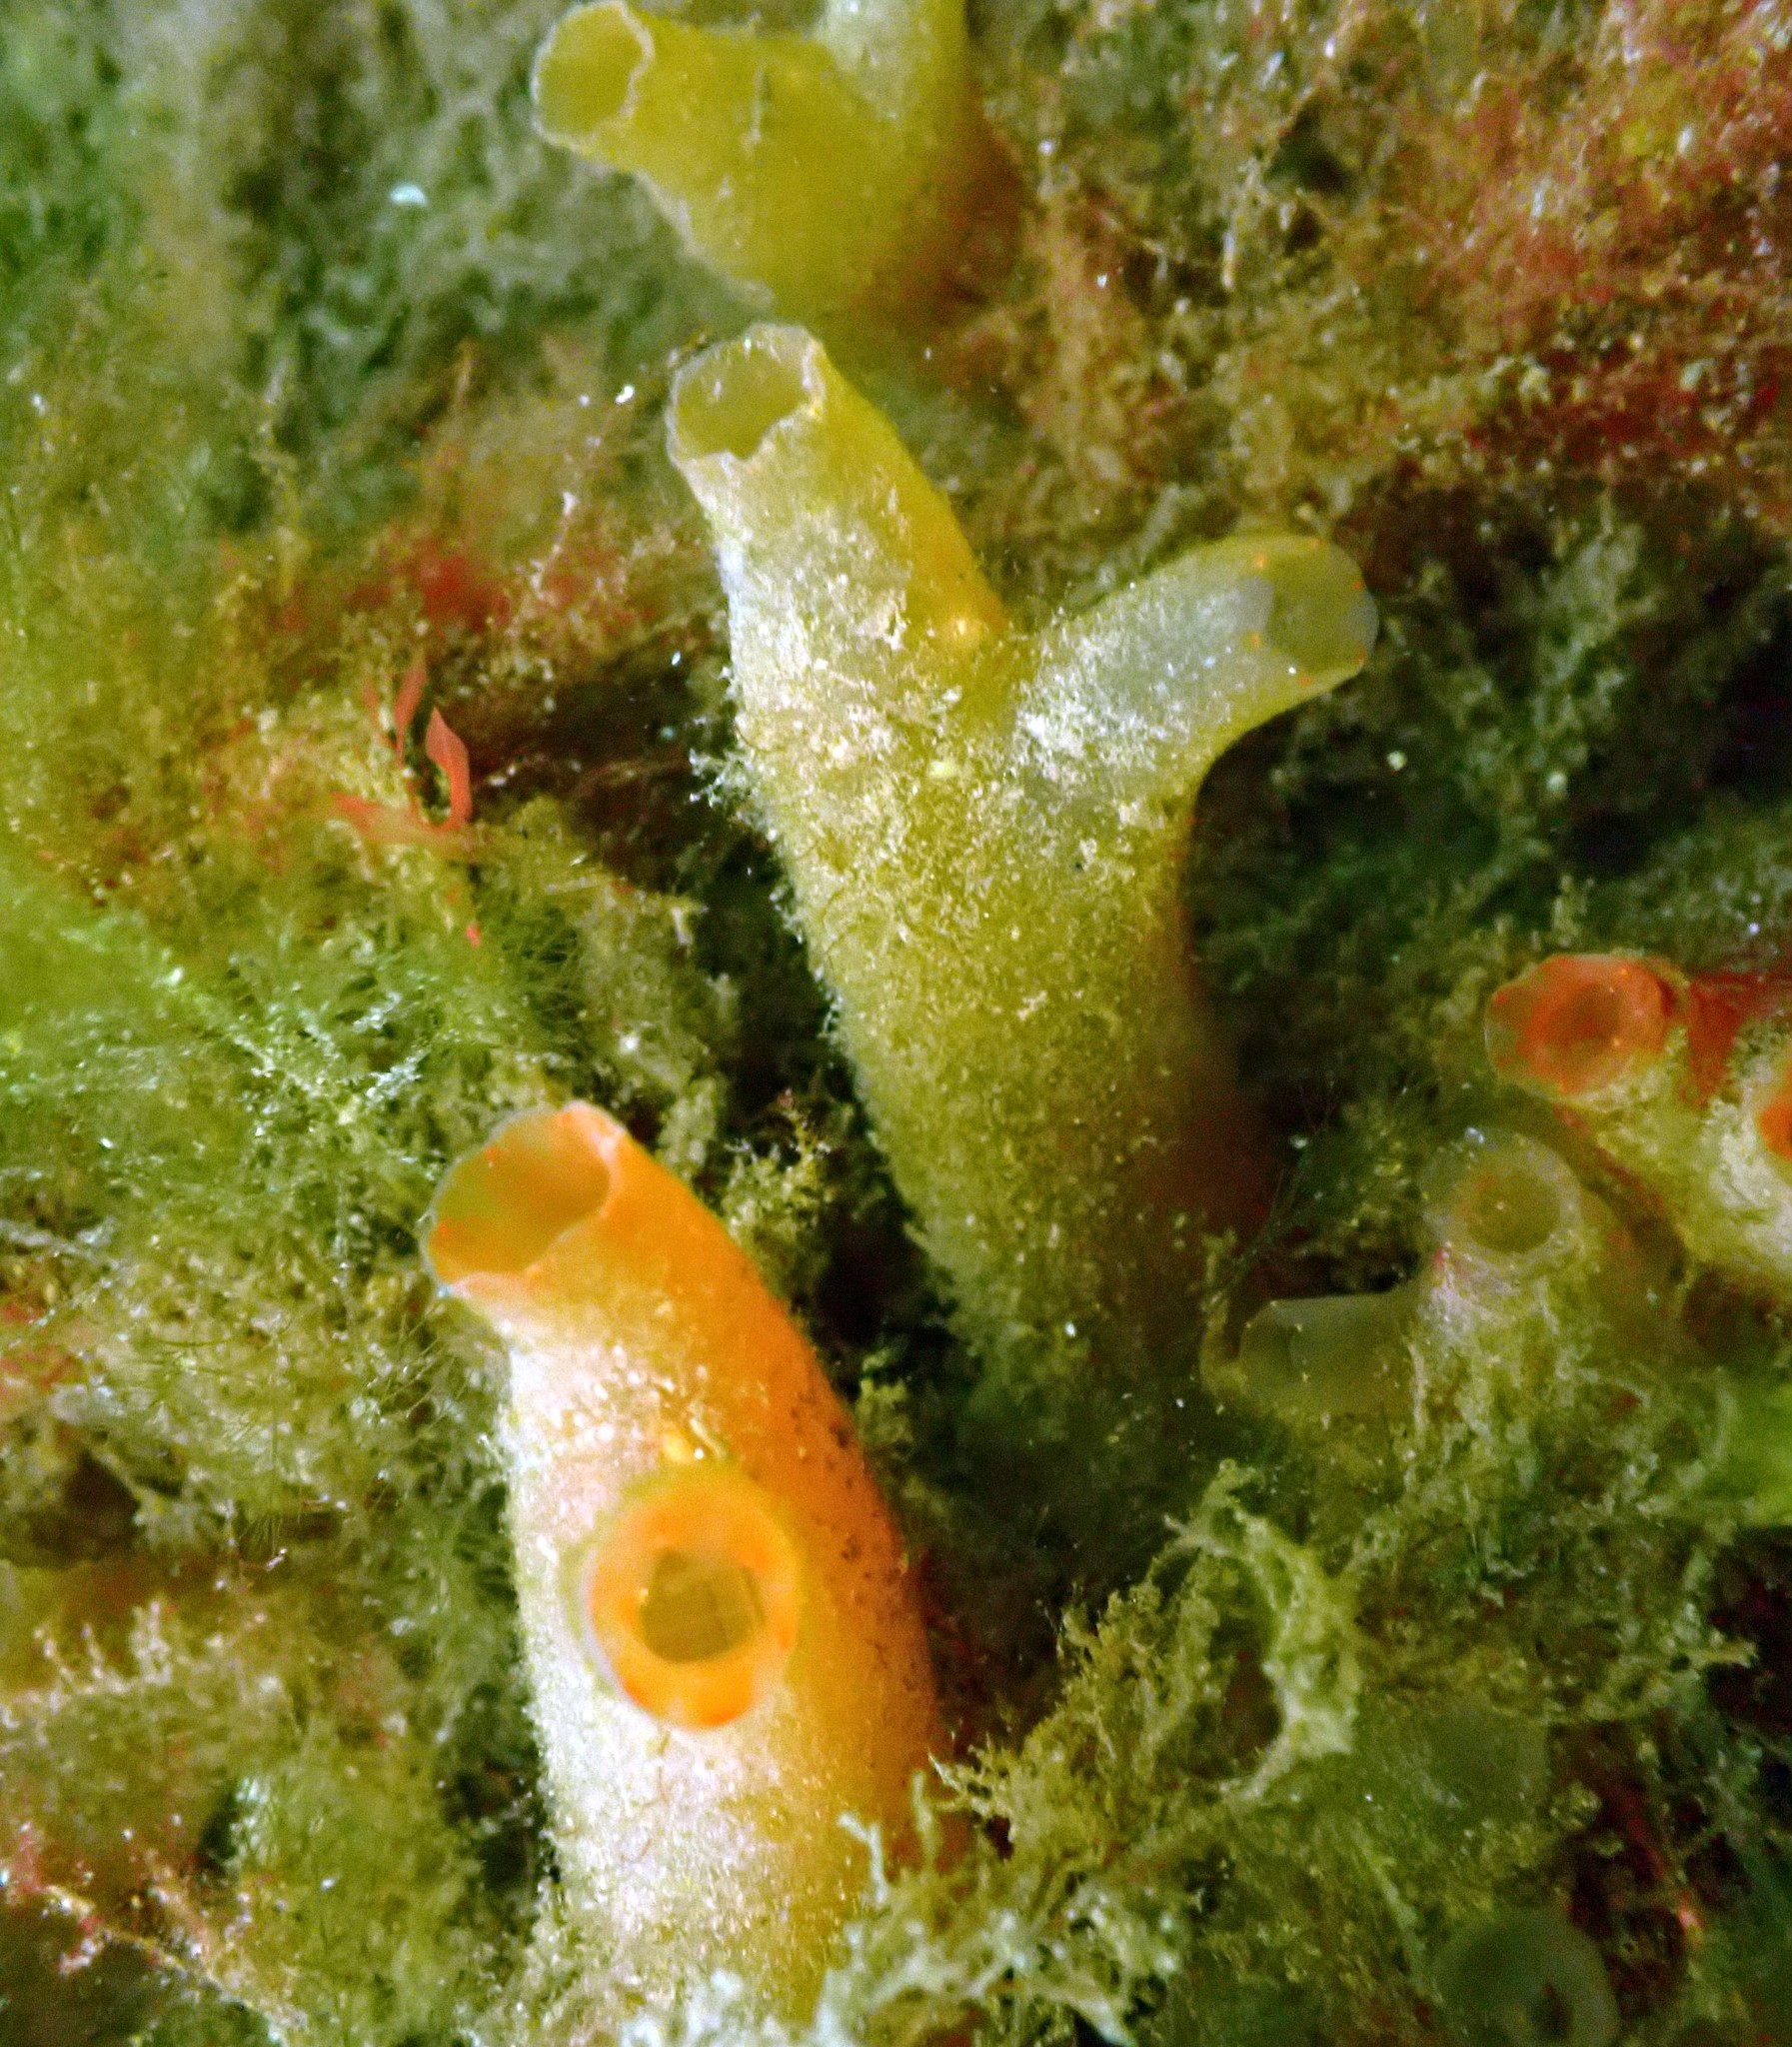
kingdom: Animalia
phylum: Chordata
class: Ascidiacea
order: Phlebobranchia
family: Cionidae
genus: Ciona
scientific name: Ciona intestinalis
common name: Vase tunicate
